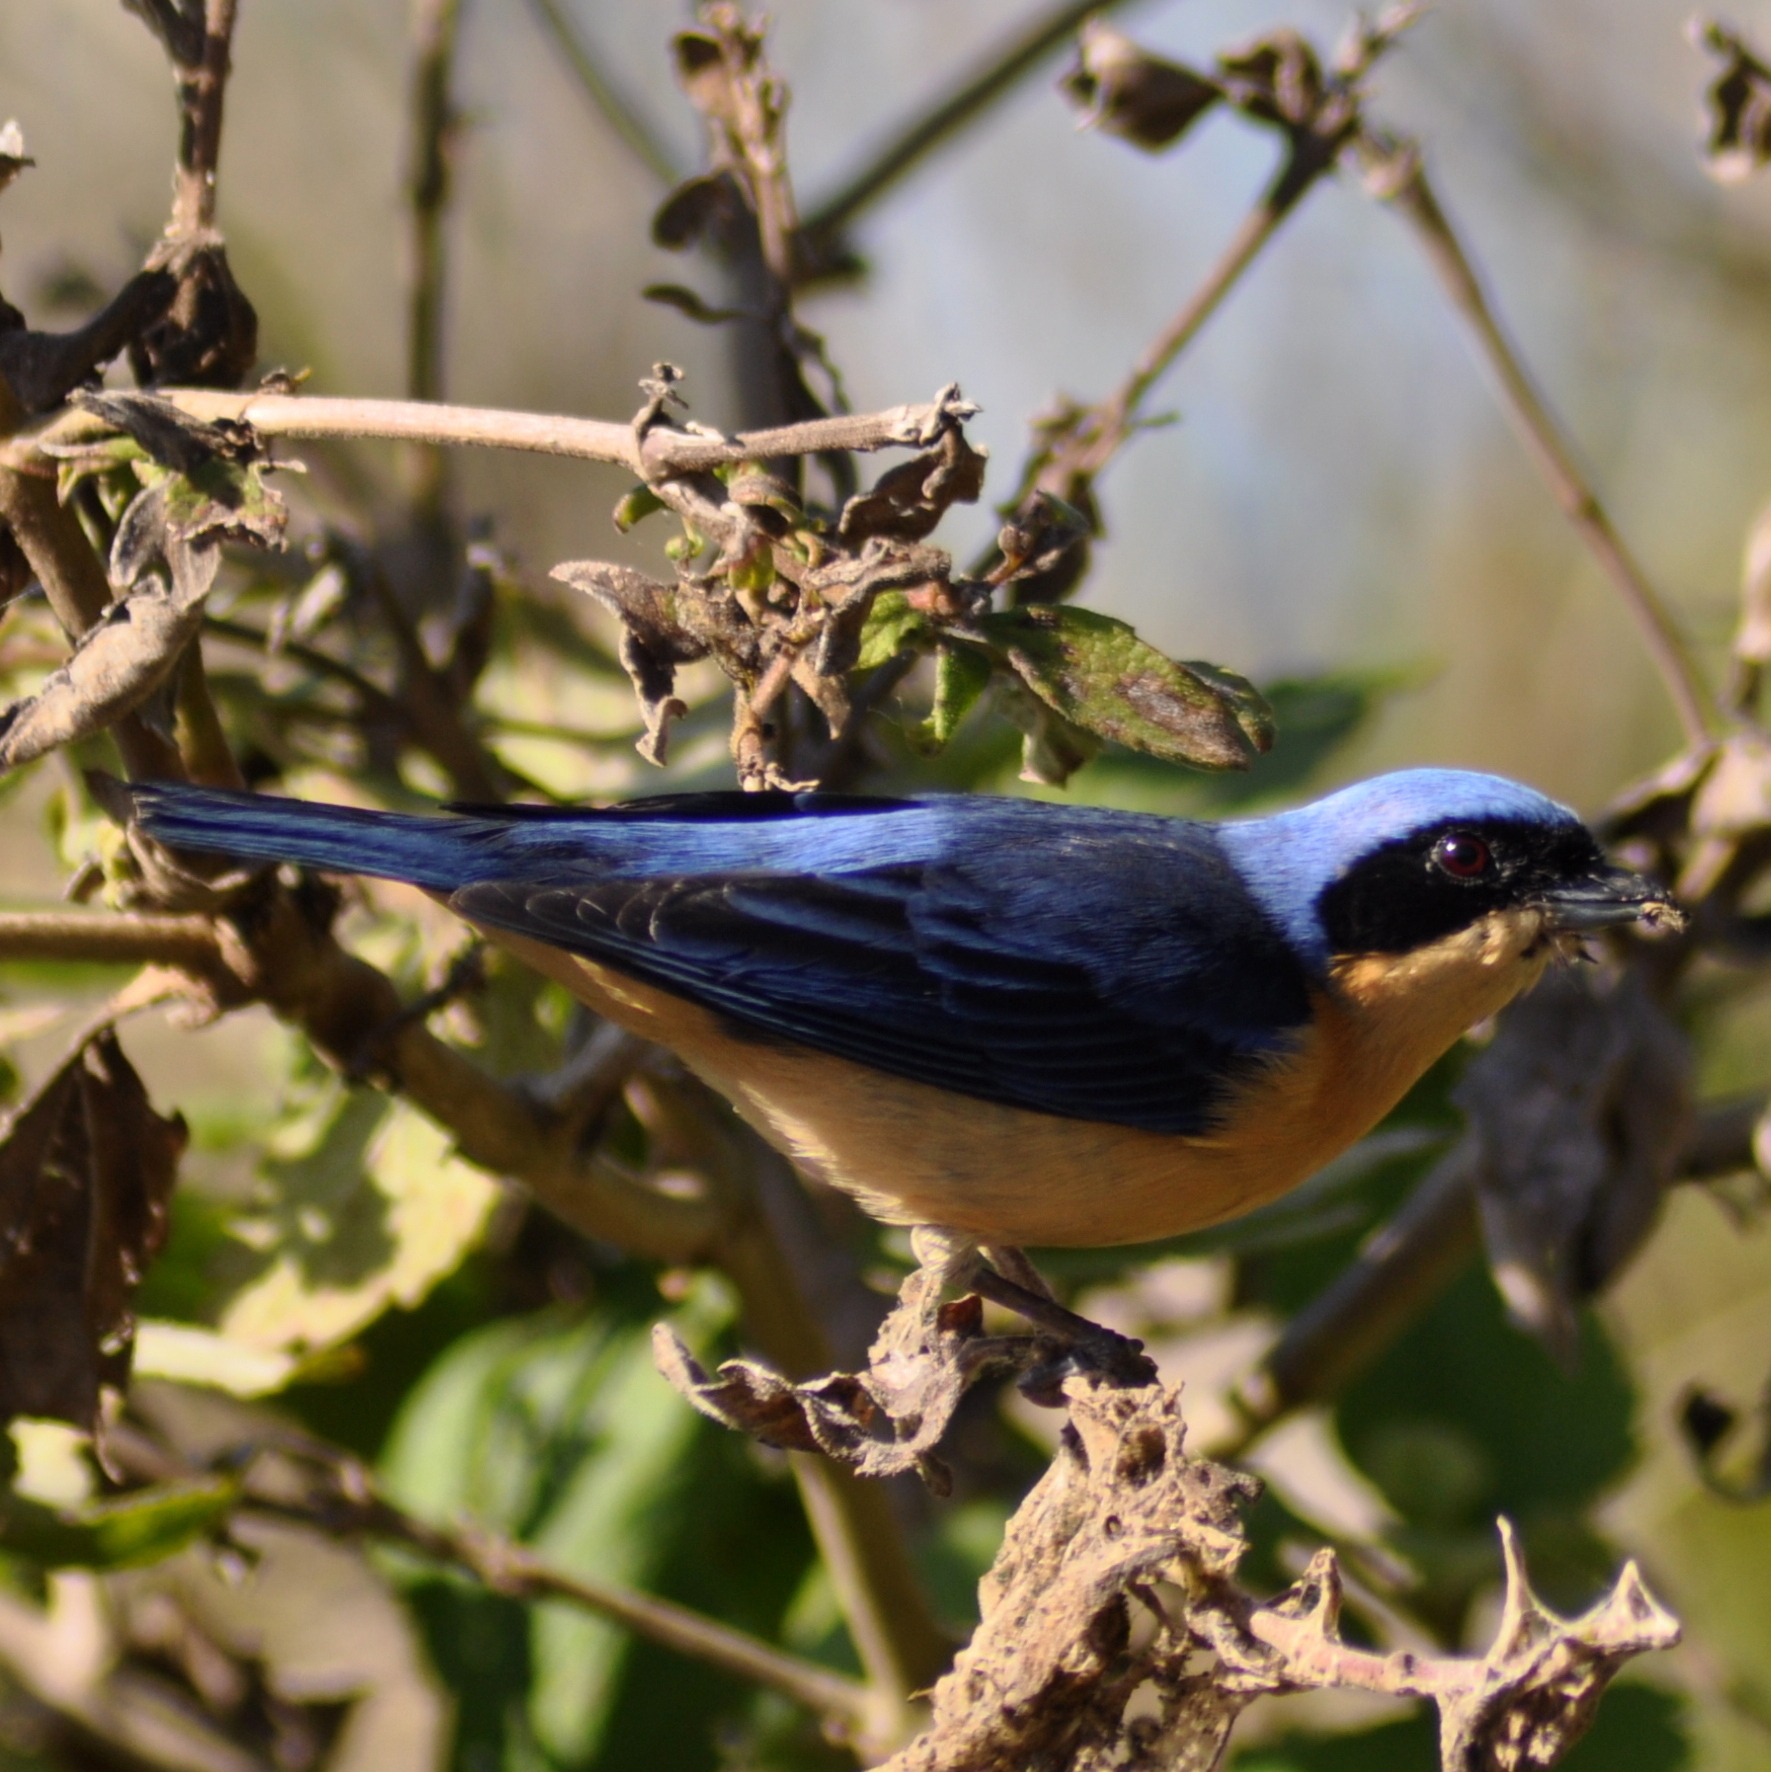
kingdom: Animalia
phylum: Chordata
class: Aves
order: Passeriformes
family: Thraupidae
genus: Pipraeidea
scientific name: Pipraeidea melanonota
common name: Fawn-breasted tanager
